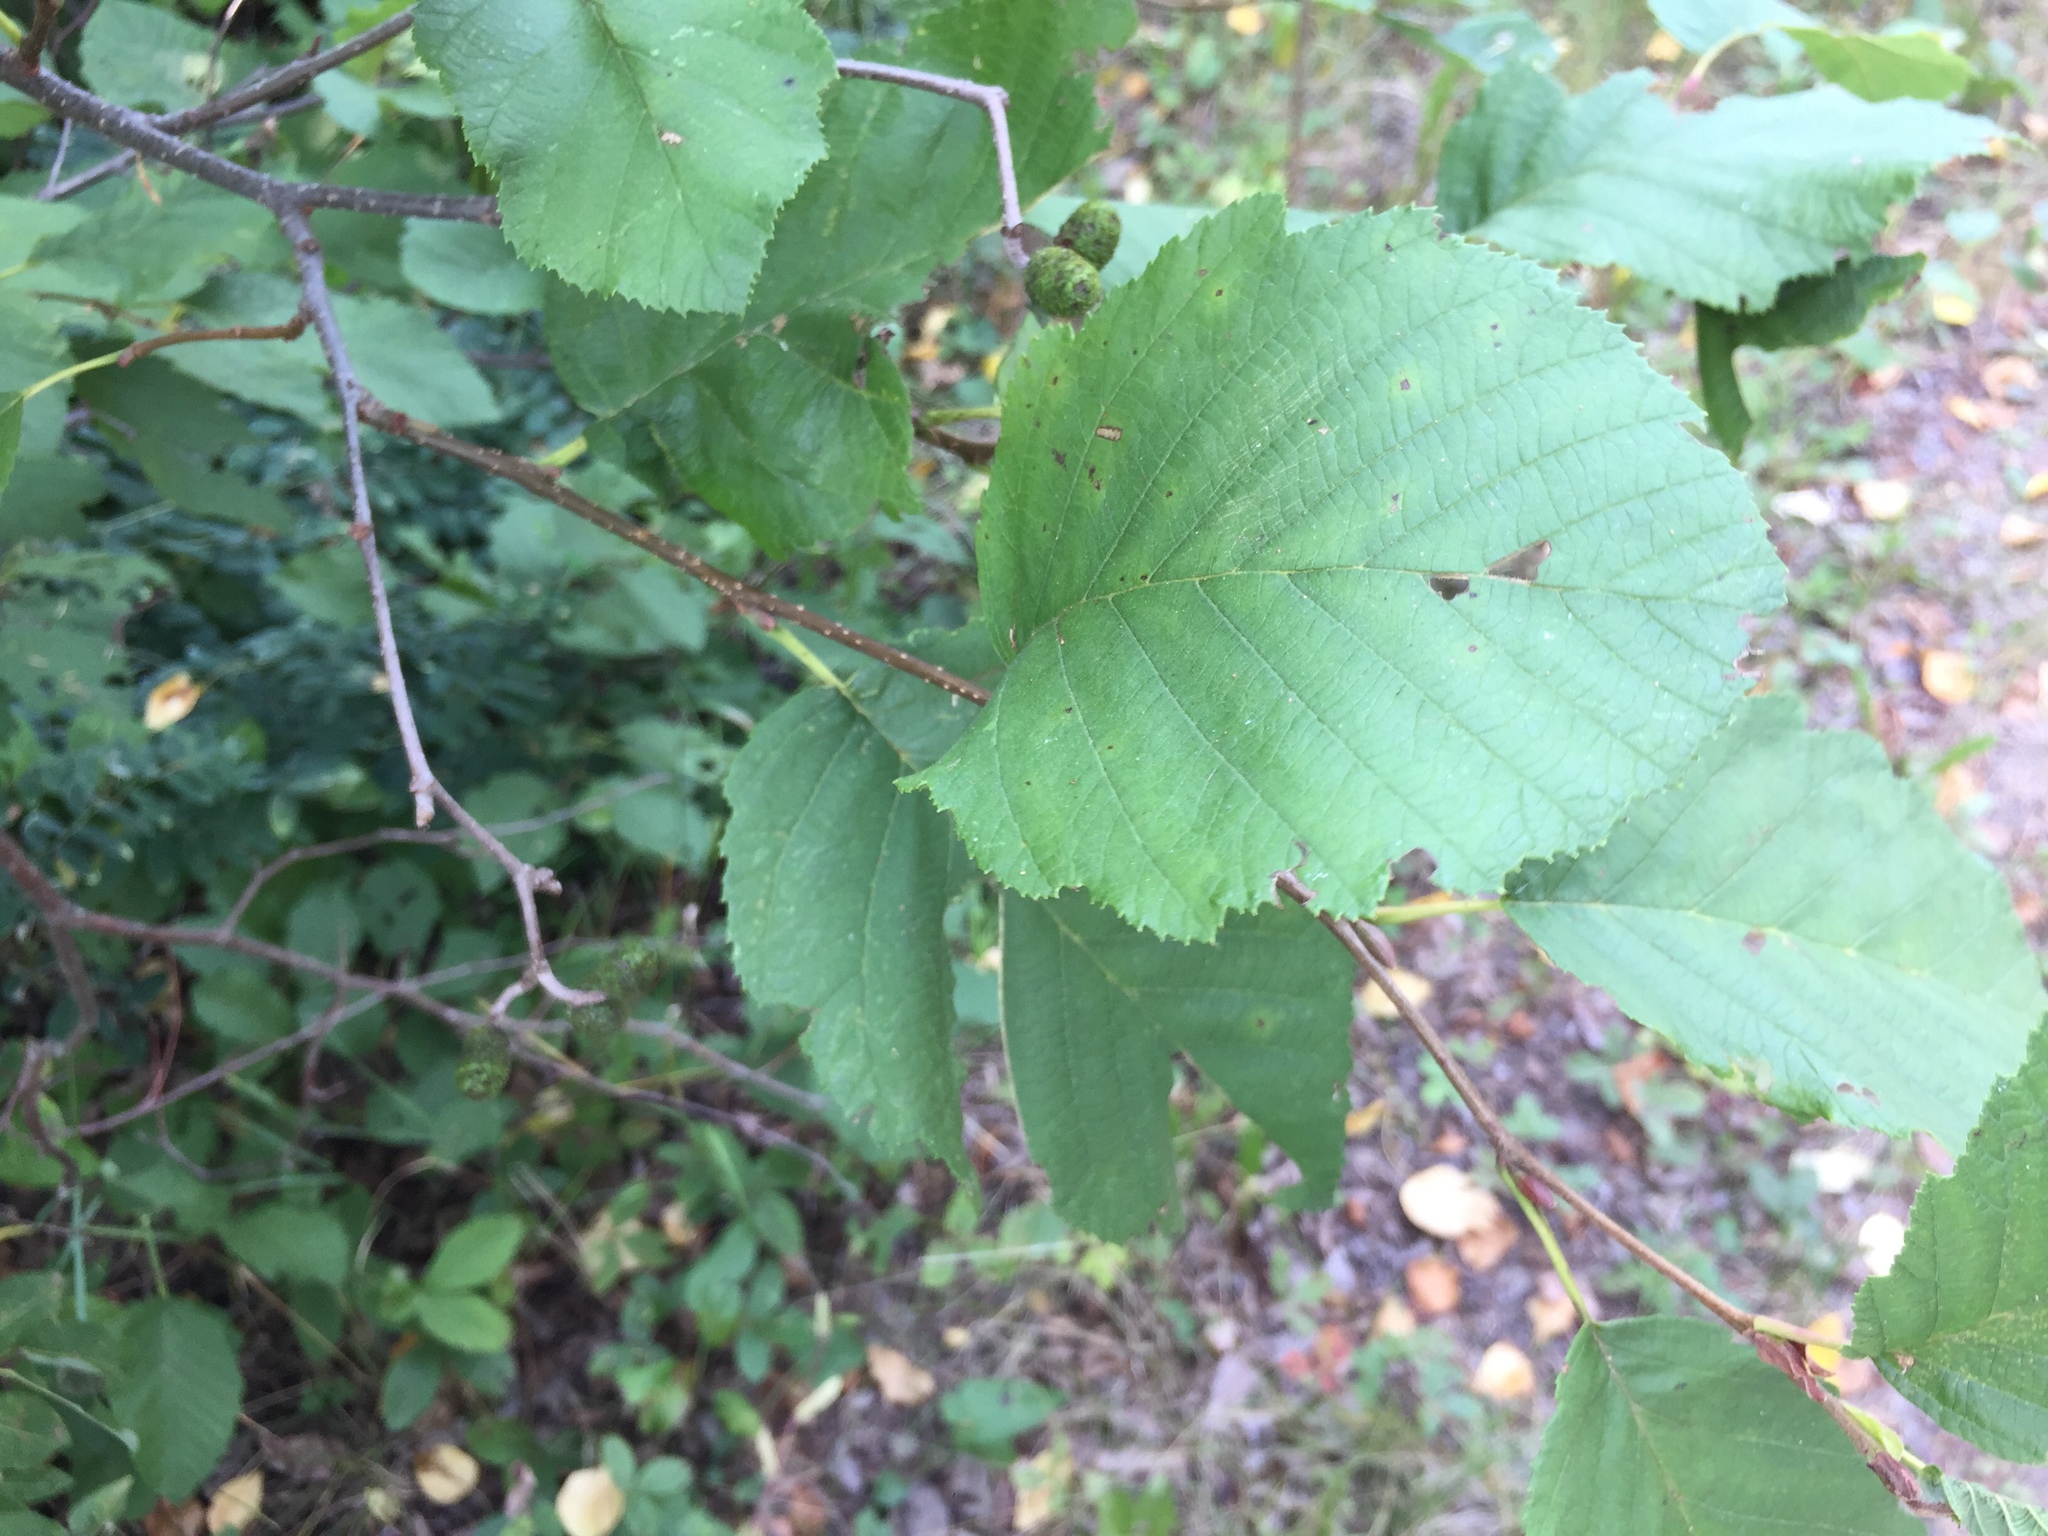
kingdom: Plantae
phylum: Tracheophyta
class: Magnoliopsida
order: Fagales
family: Betulaceae
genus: Alnus
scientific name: Alnus incana
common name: Grey alder
